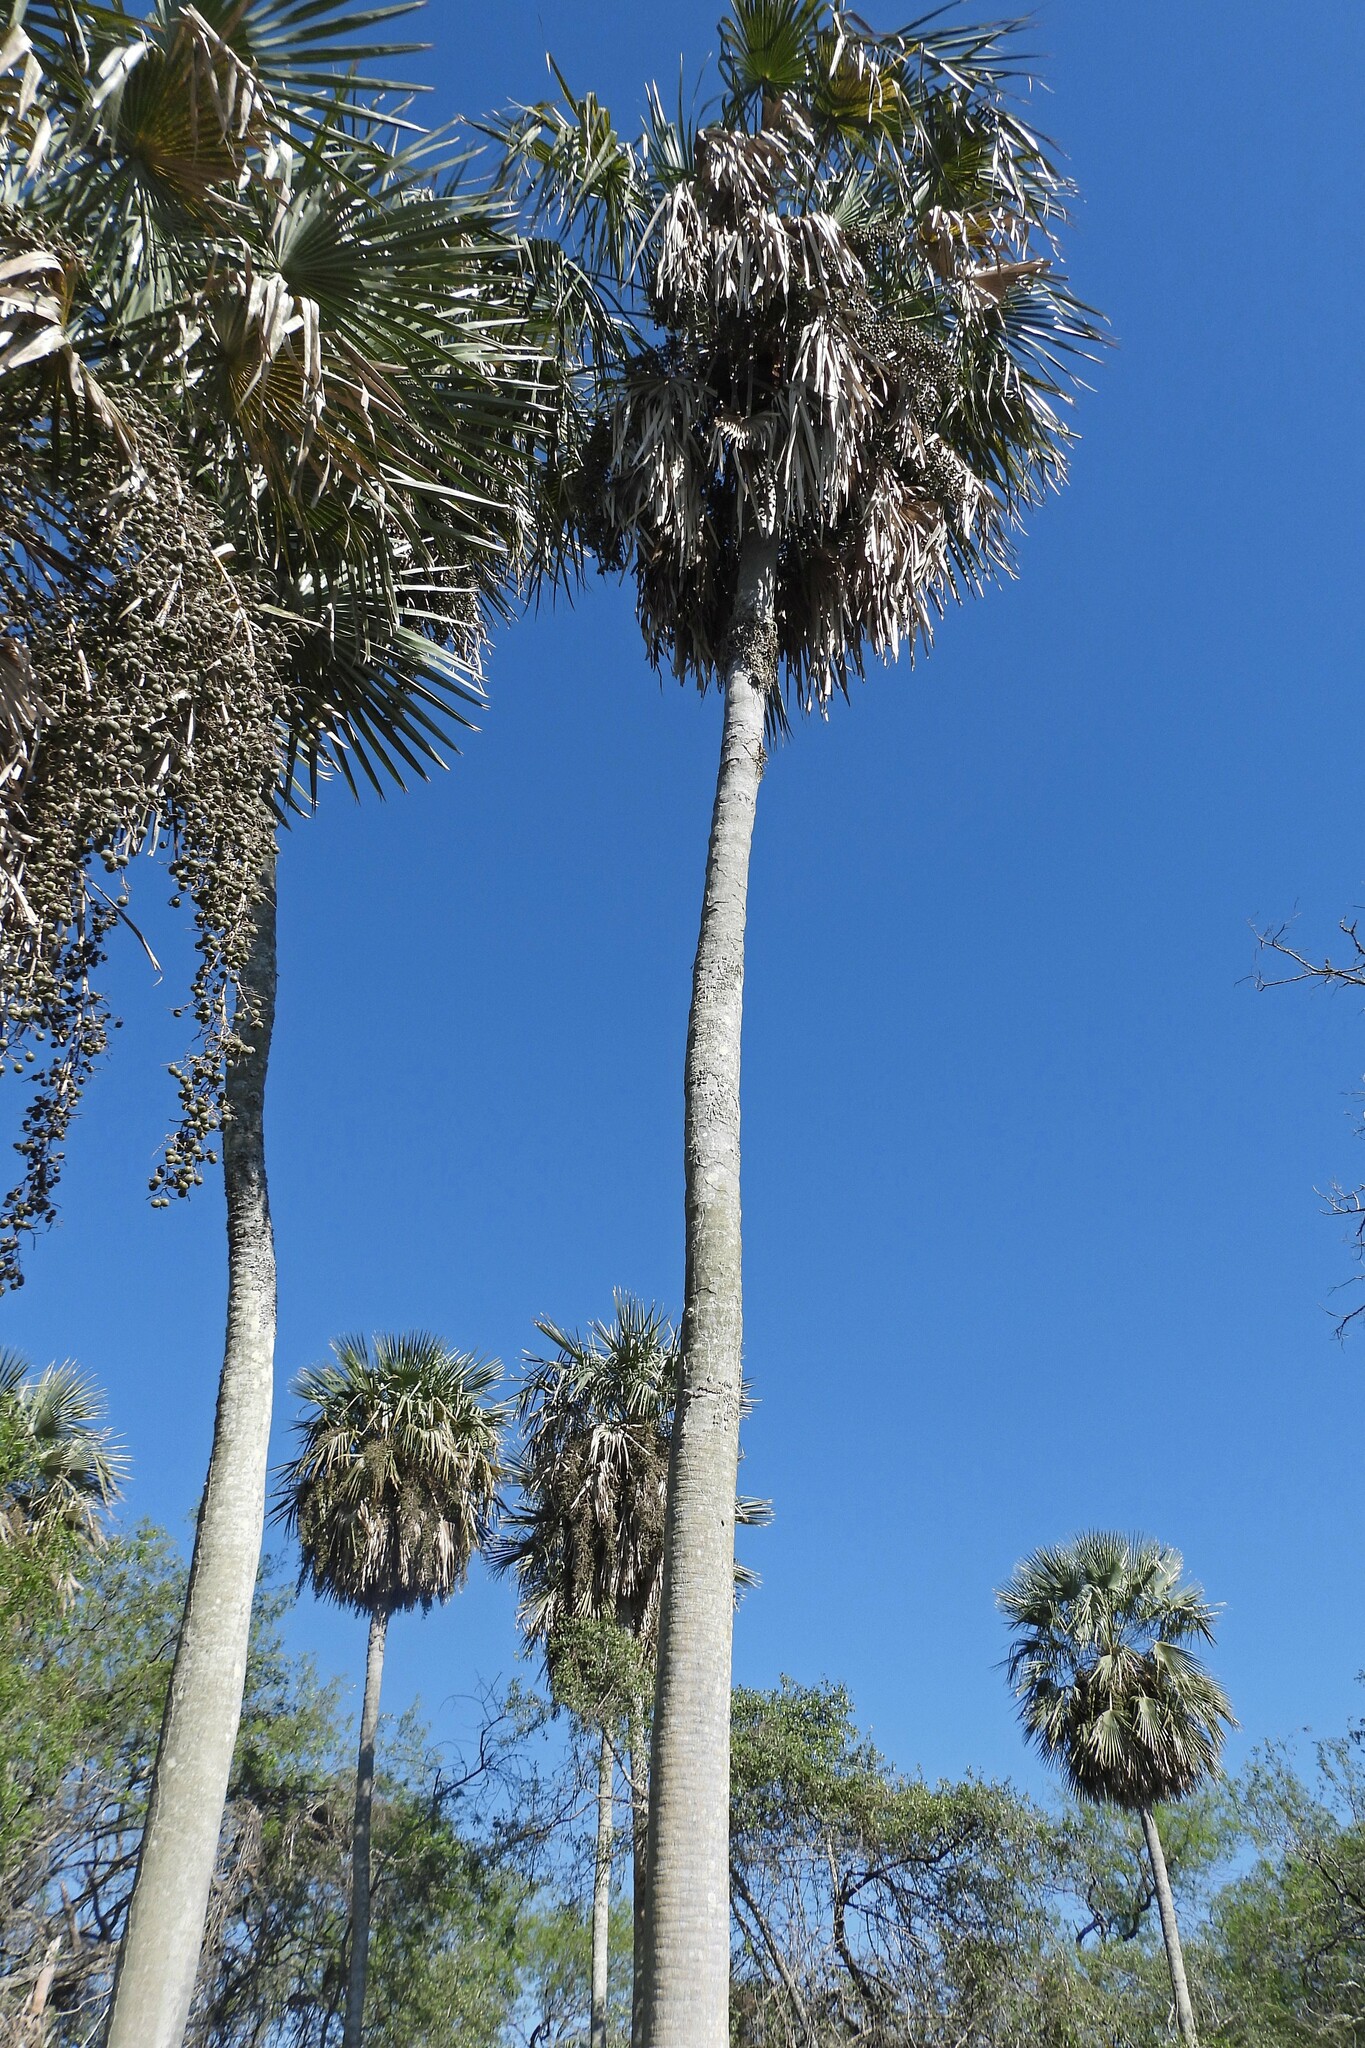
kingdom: Plantae
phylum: Tracheophyta
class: Liliopsida
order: Arecales
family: Arecaceae
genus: Copernicia
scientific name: Copernicia alba
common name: Caranday palm
